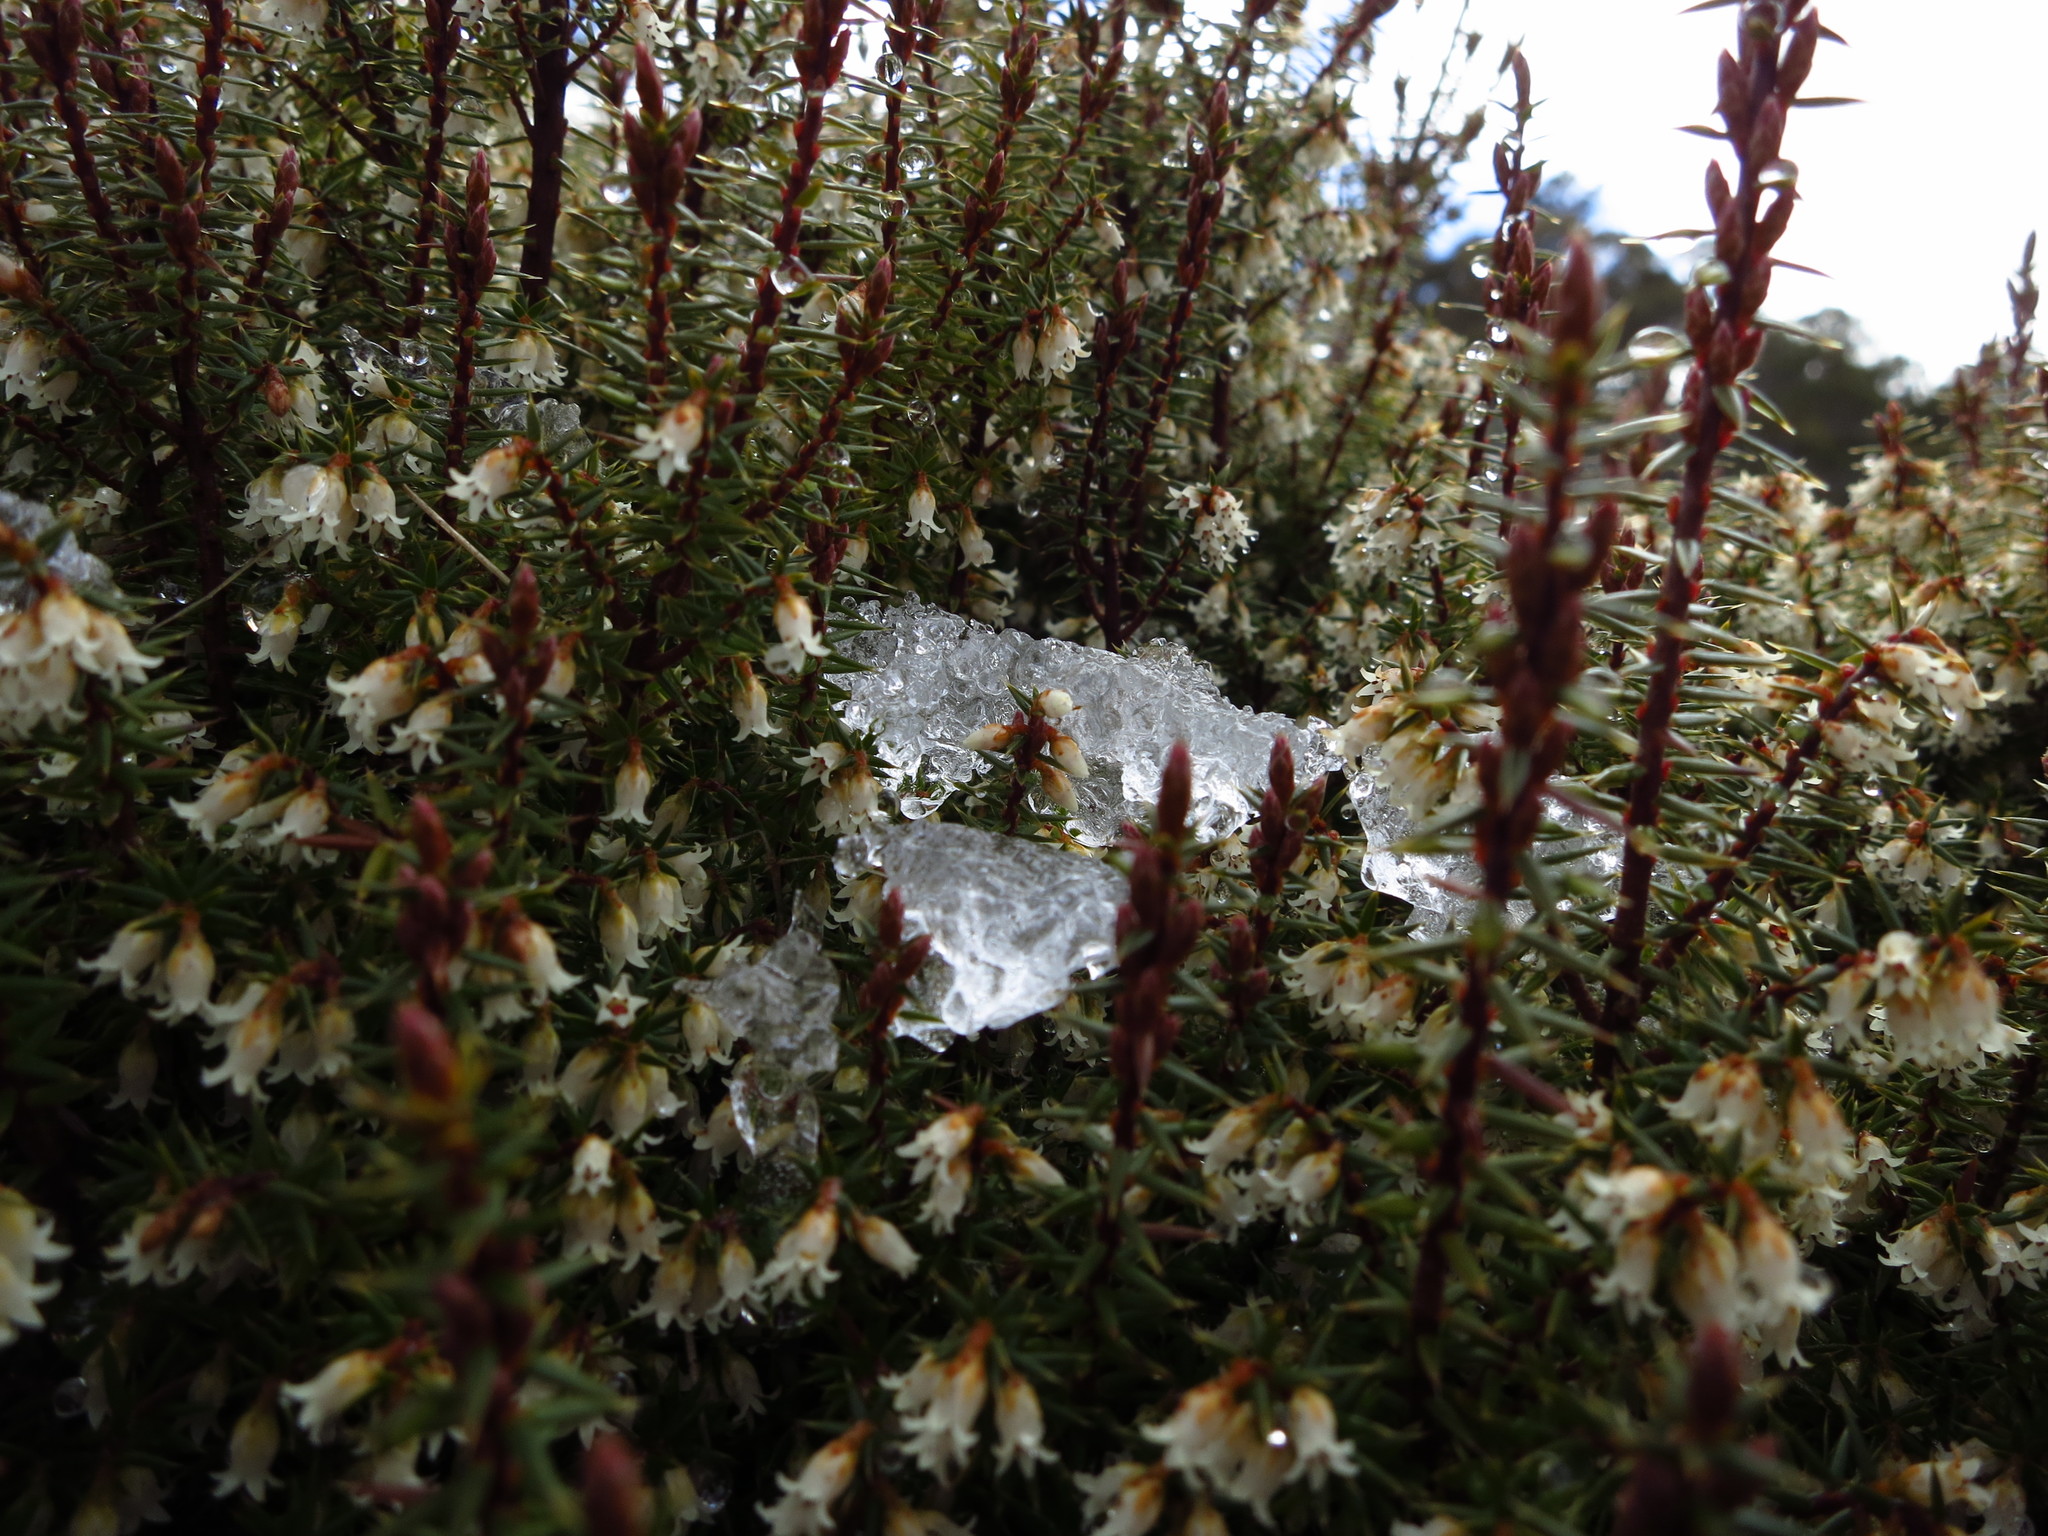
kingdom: Plantae
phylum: Tracheophyta
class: Magnoliopsida
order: Ericales
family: Ericaceae
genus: Leptecophylla
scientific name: Leptecophylla parvifolia
